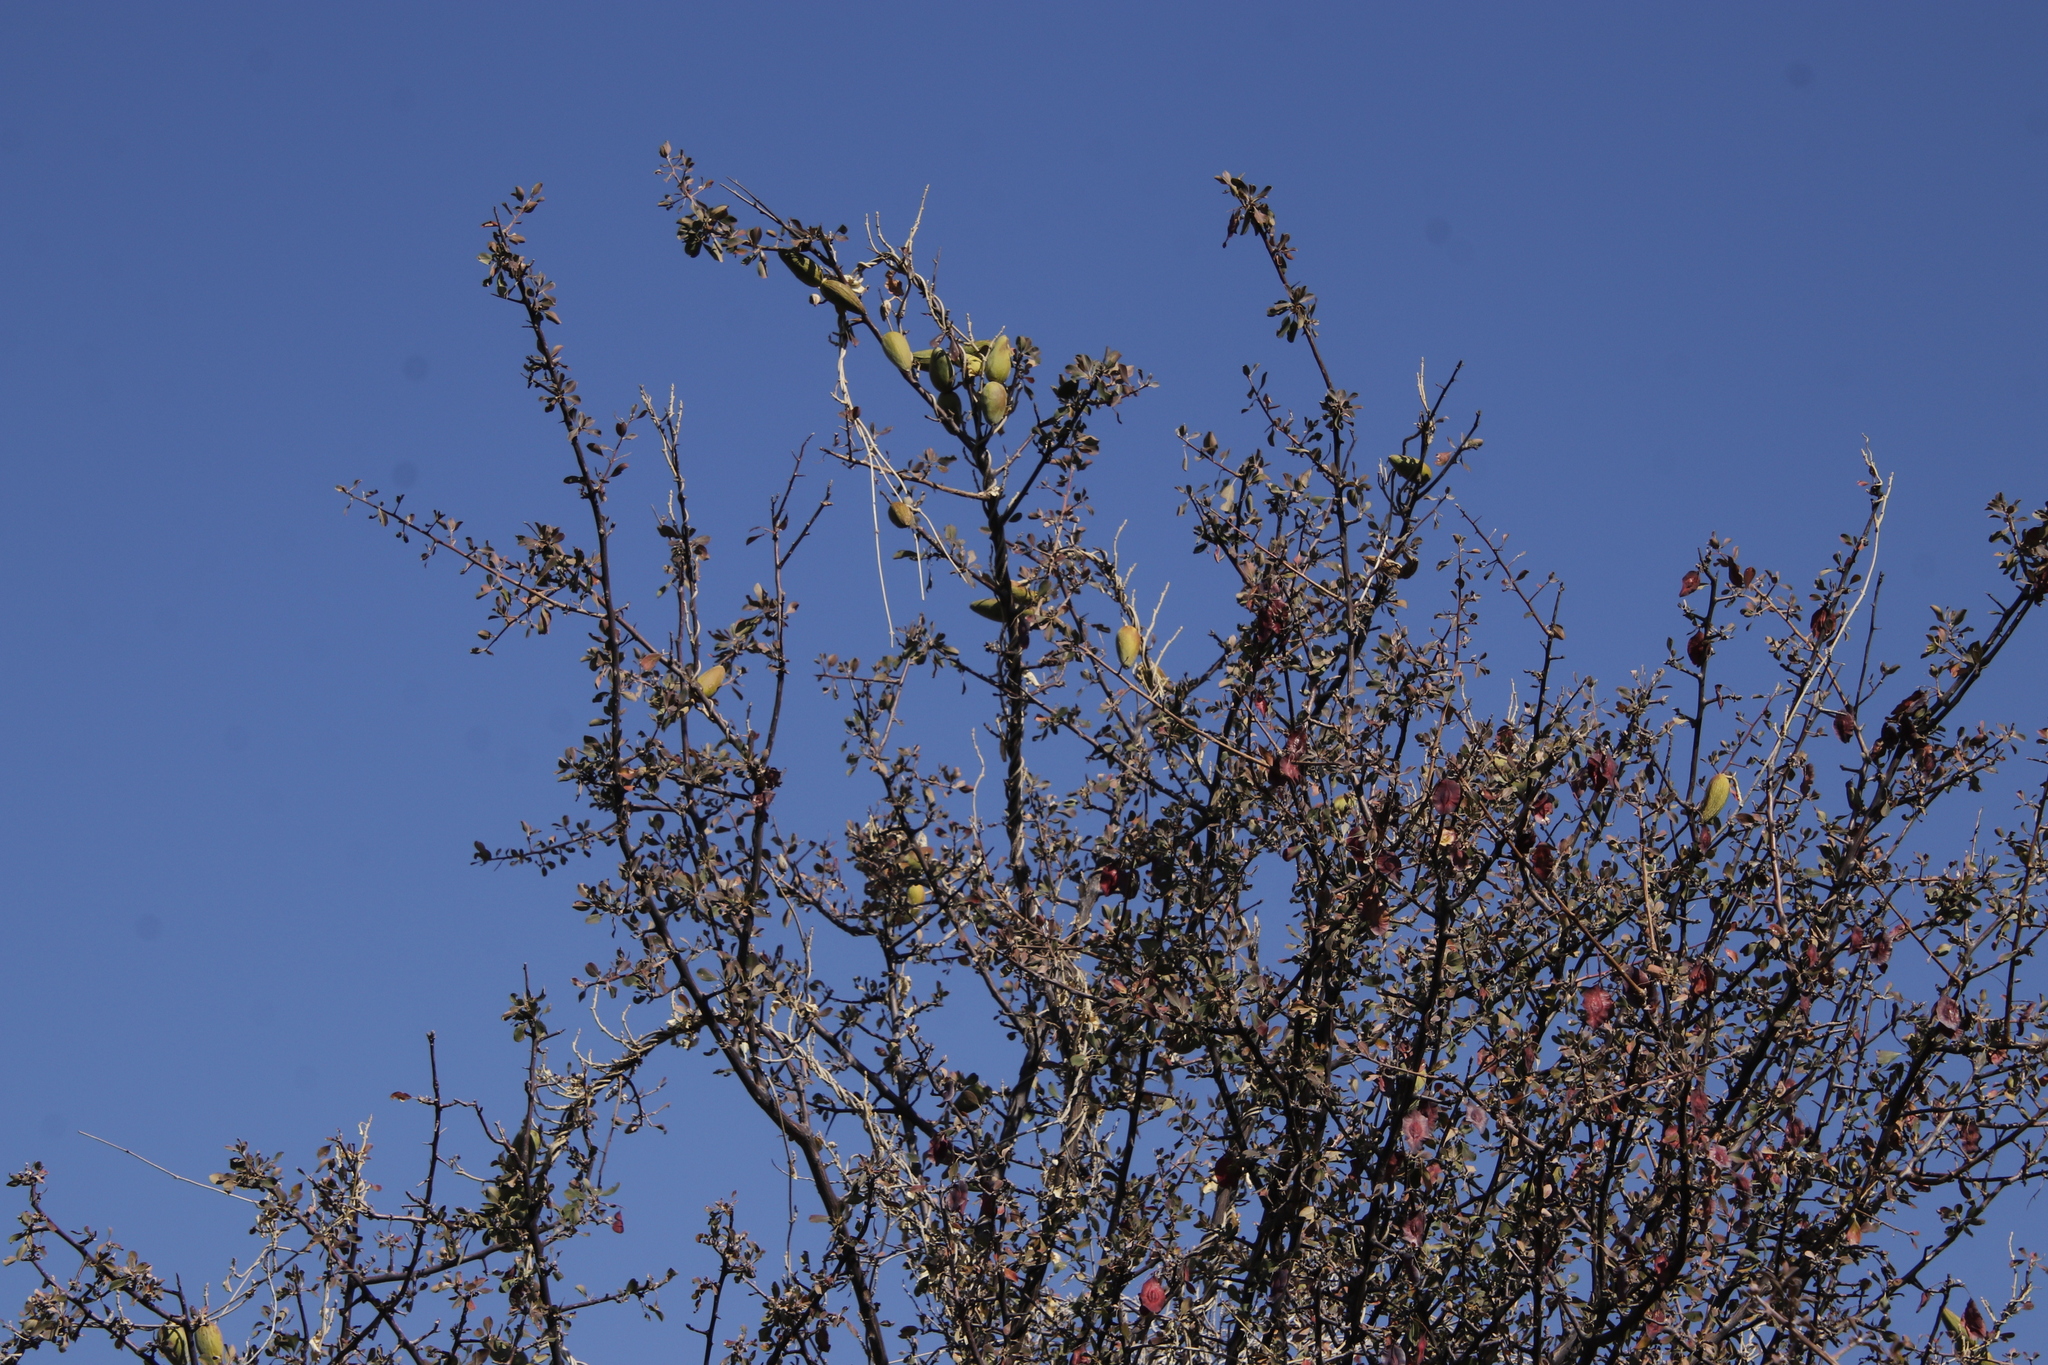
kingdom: Plantae
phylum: Tracheophyta
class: Magnoliopsida
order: Myrtales
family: Combretaceae
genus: Terminalia
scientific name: Terminalia prunioides
